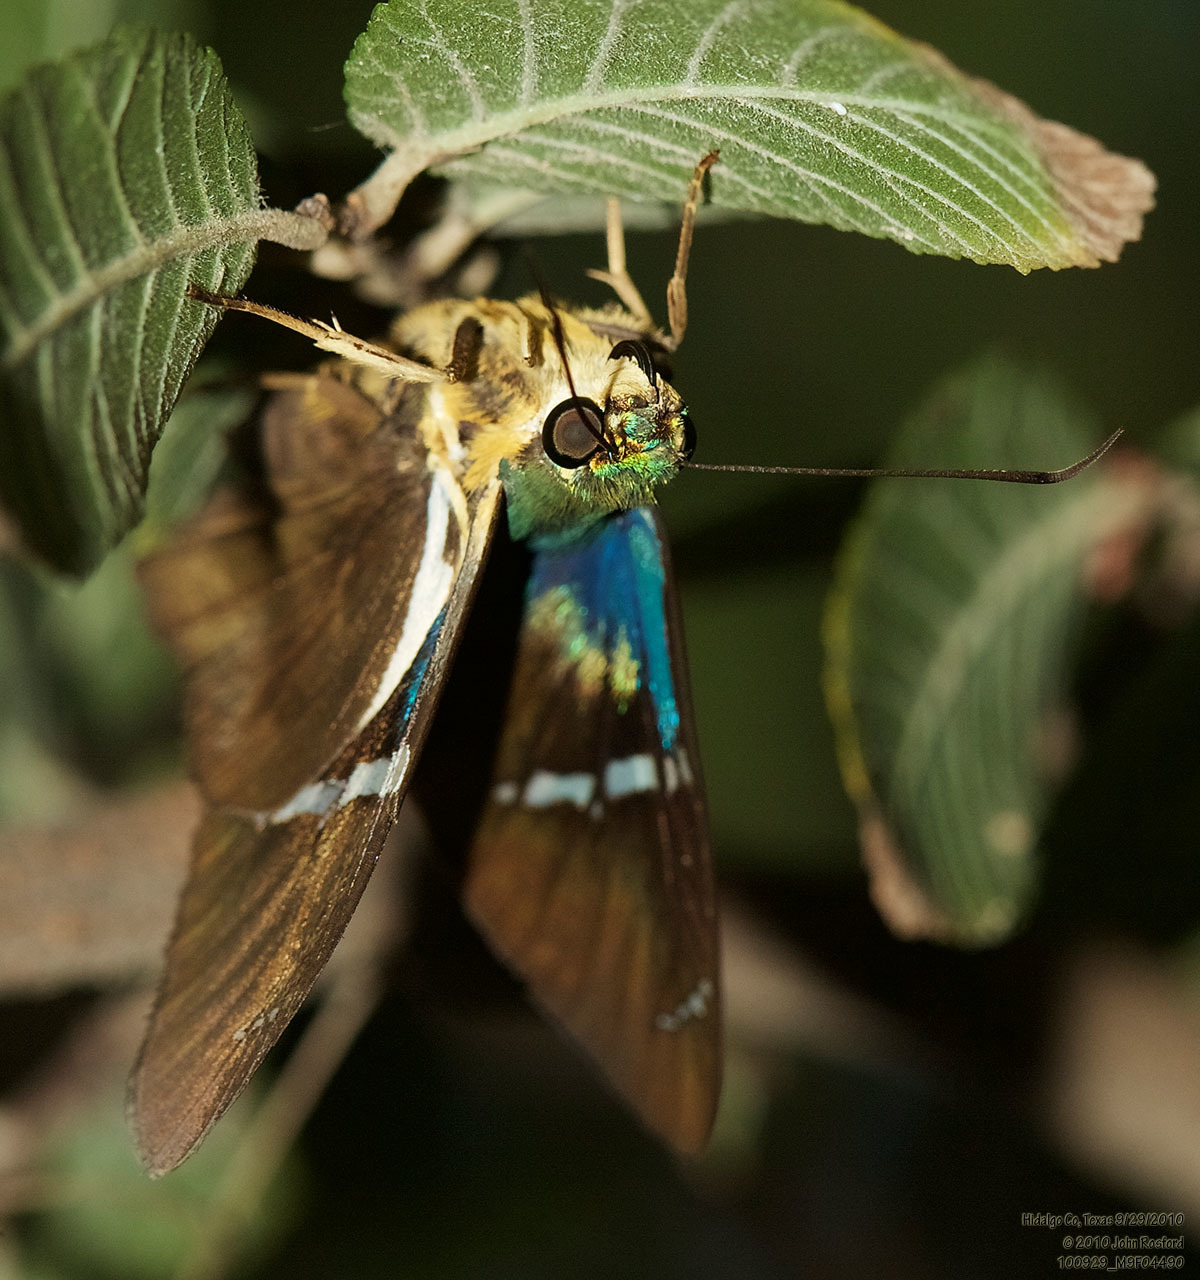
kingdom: Animalia
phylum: Arthropoda
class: Insecta
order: Lepidoptera
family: Hesperiidae
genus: Astraptes
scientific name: Astraptes fulgerator
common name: Two-barred flasher
